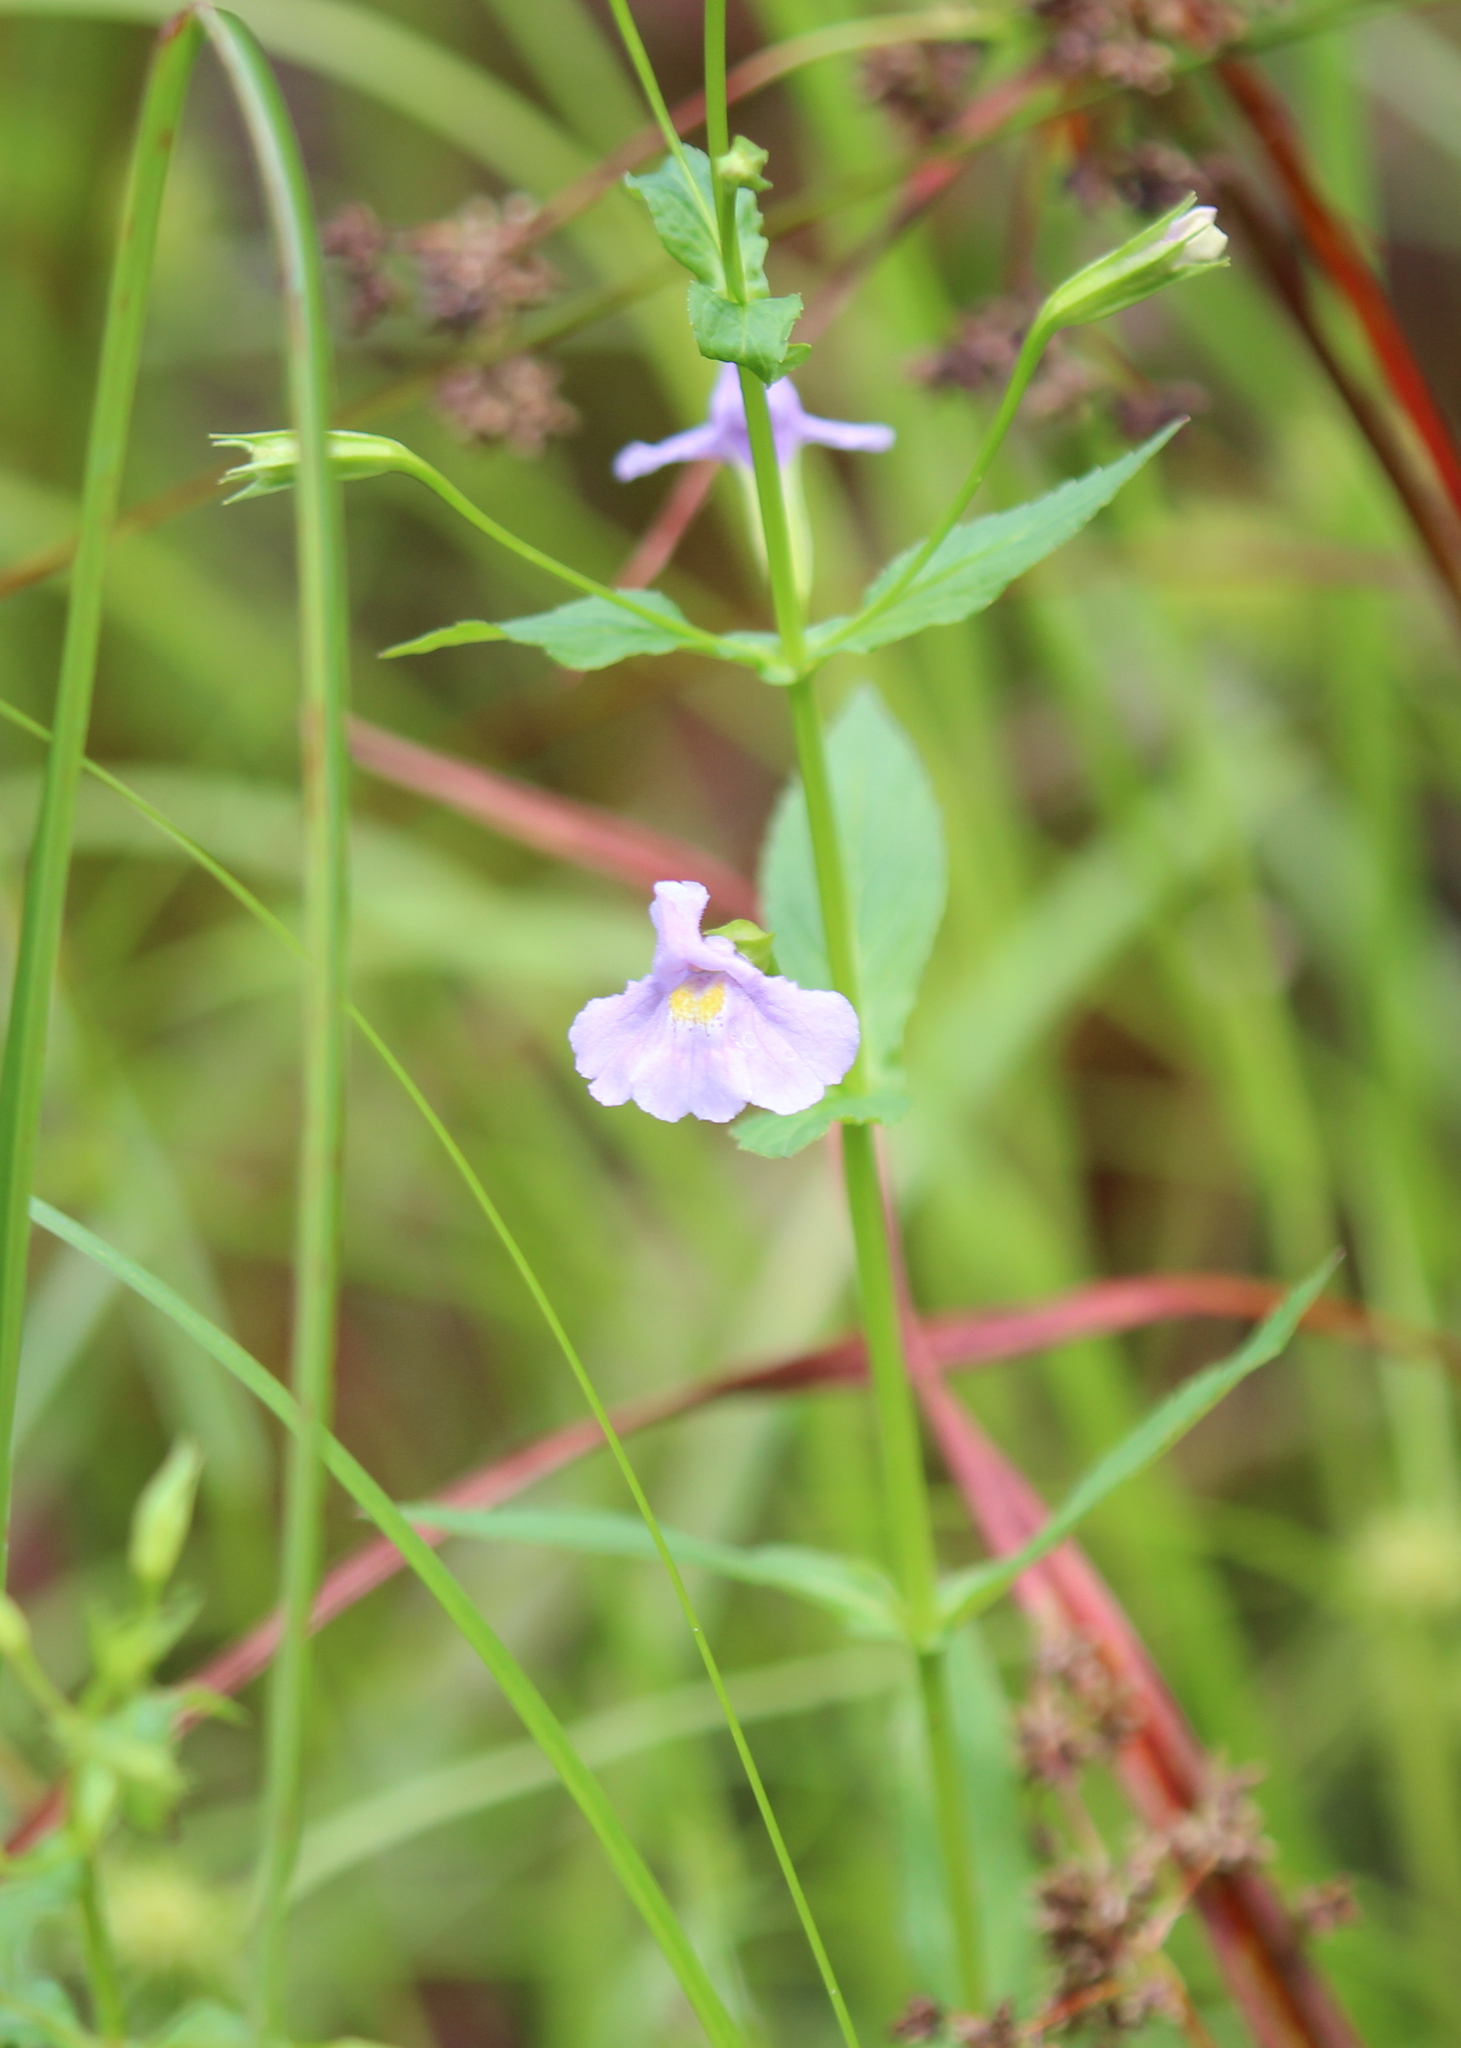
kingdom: Plantae
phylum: Tracheophyta
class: Magnoliopsida
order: Lamiales
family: Phrymaceae
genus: Mimulus
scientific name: Mimulus ringens
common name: Allegheny monkeyflower
